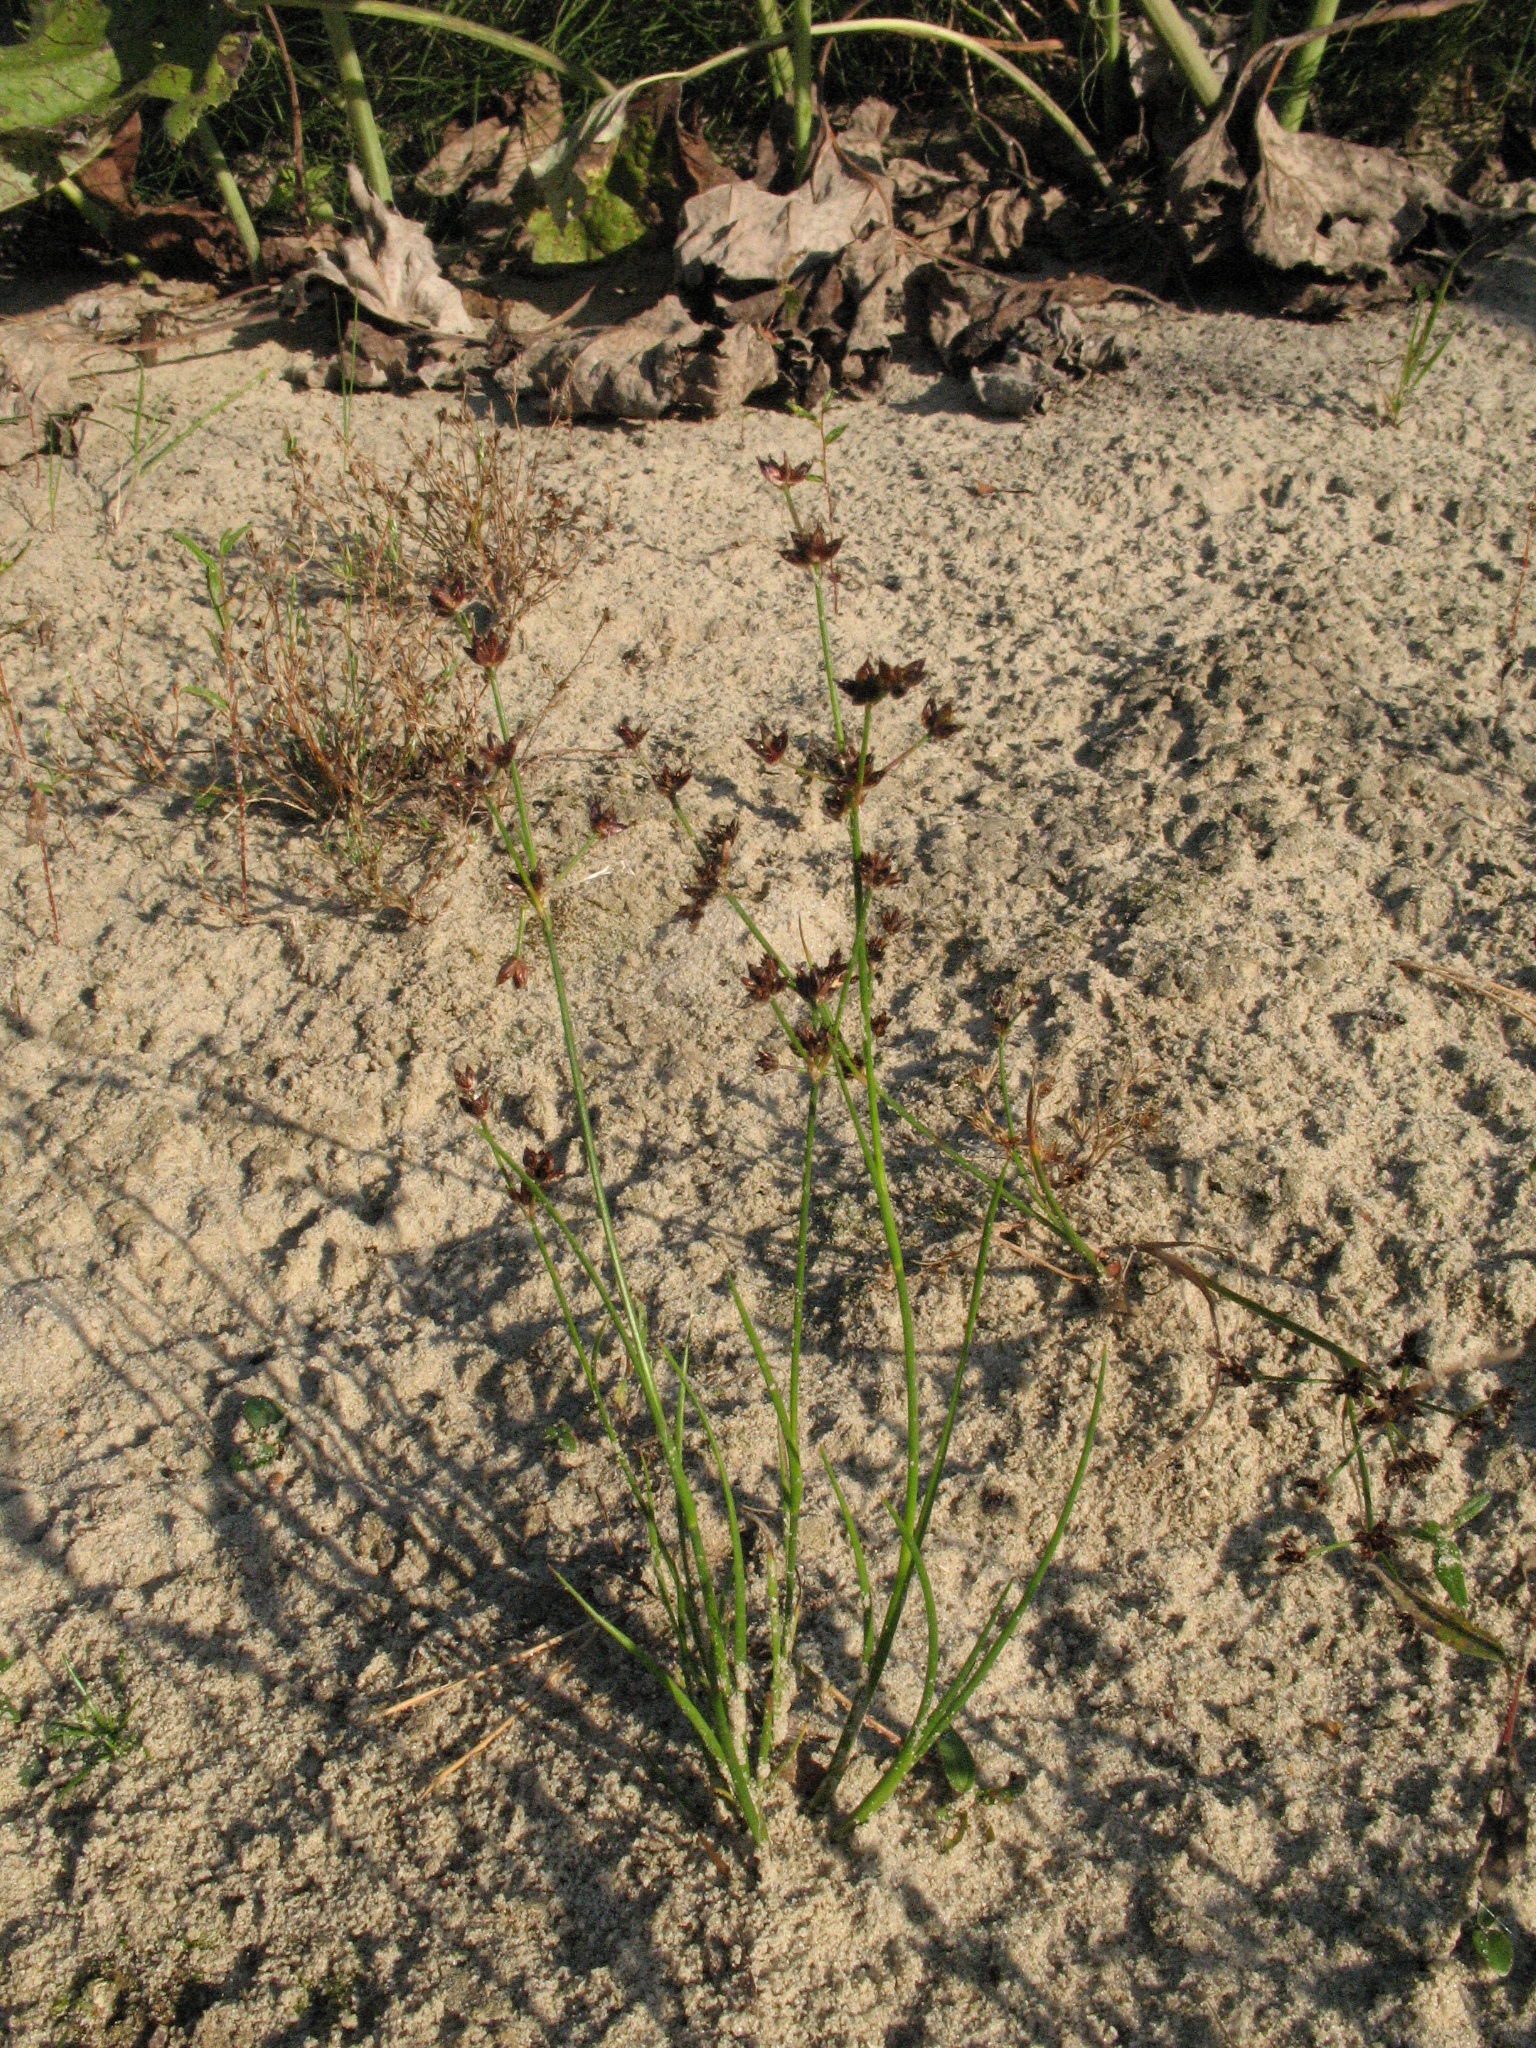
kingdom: Plantae
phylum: Tracheophyta
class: Liliopsida
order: Poales
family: Juncaceae
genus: Juncus
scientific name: Juncus articulatus
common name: Jointed rush
